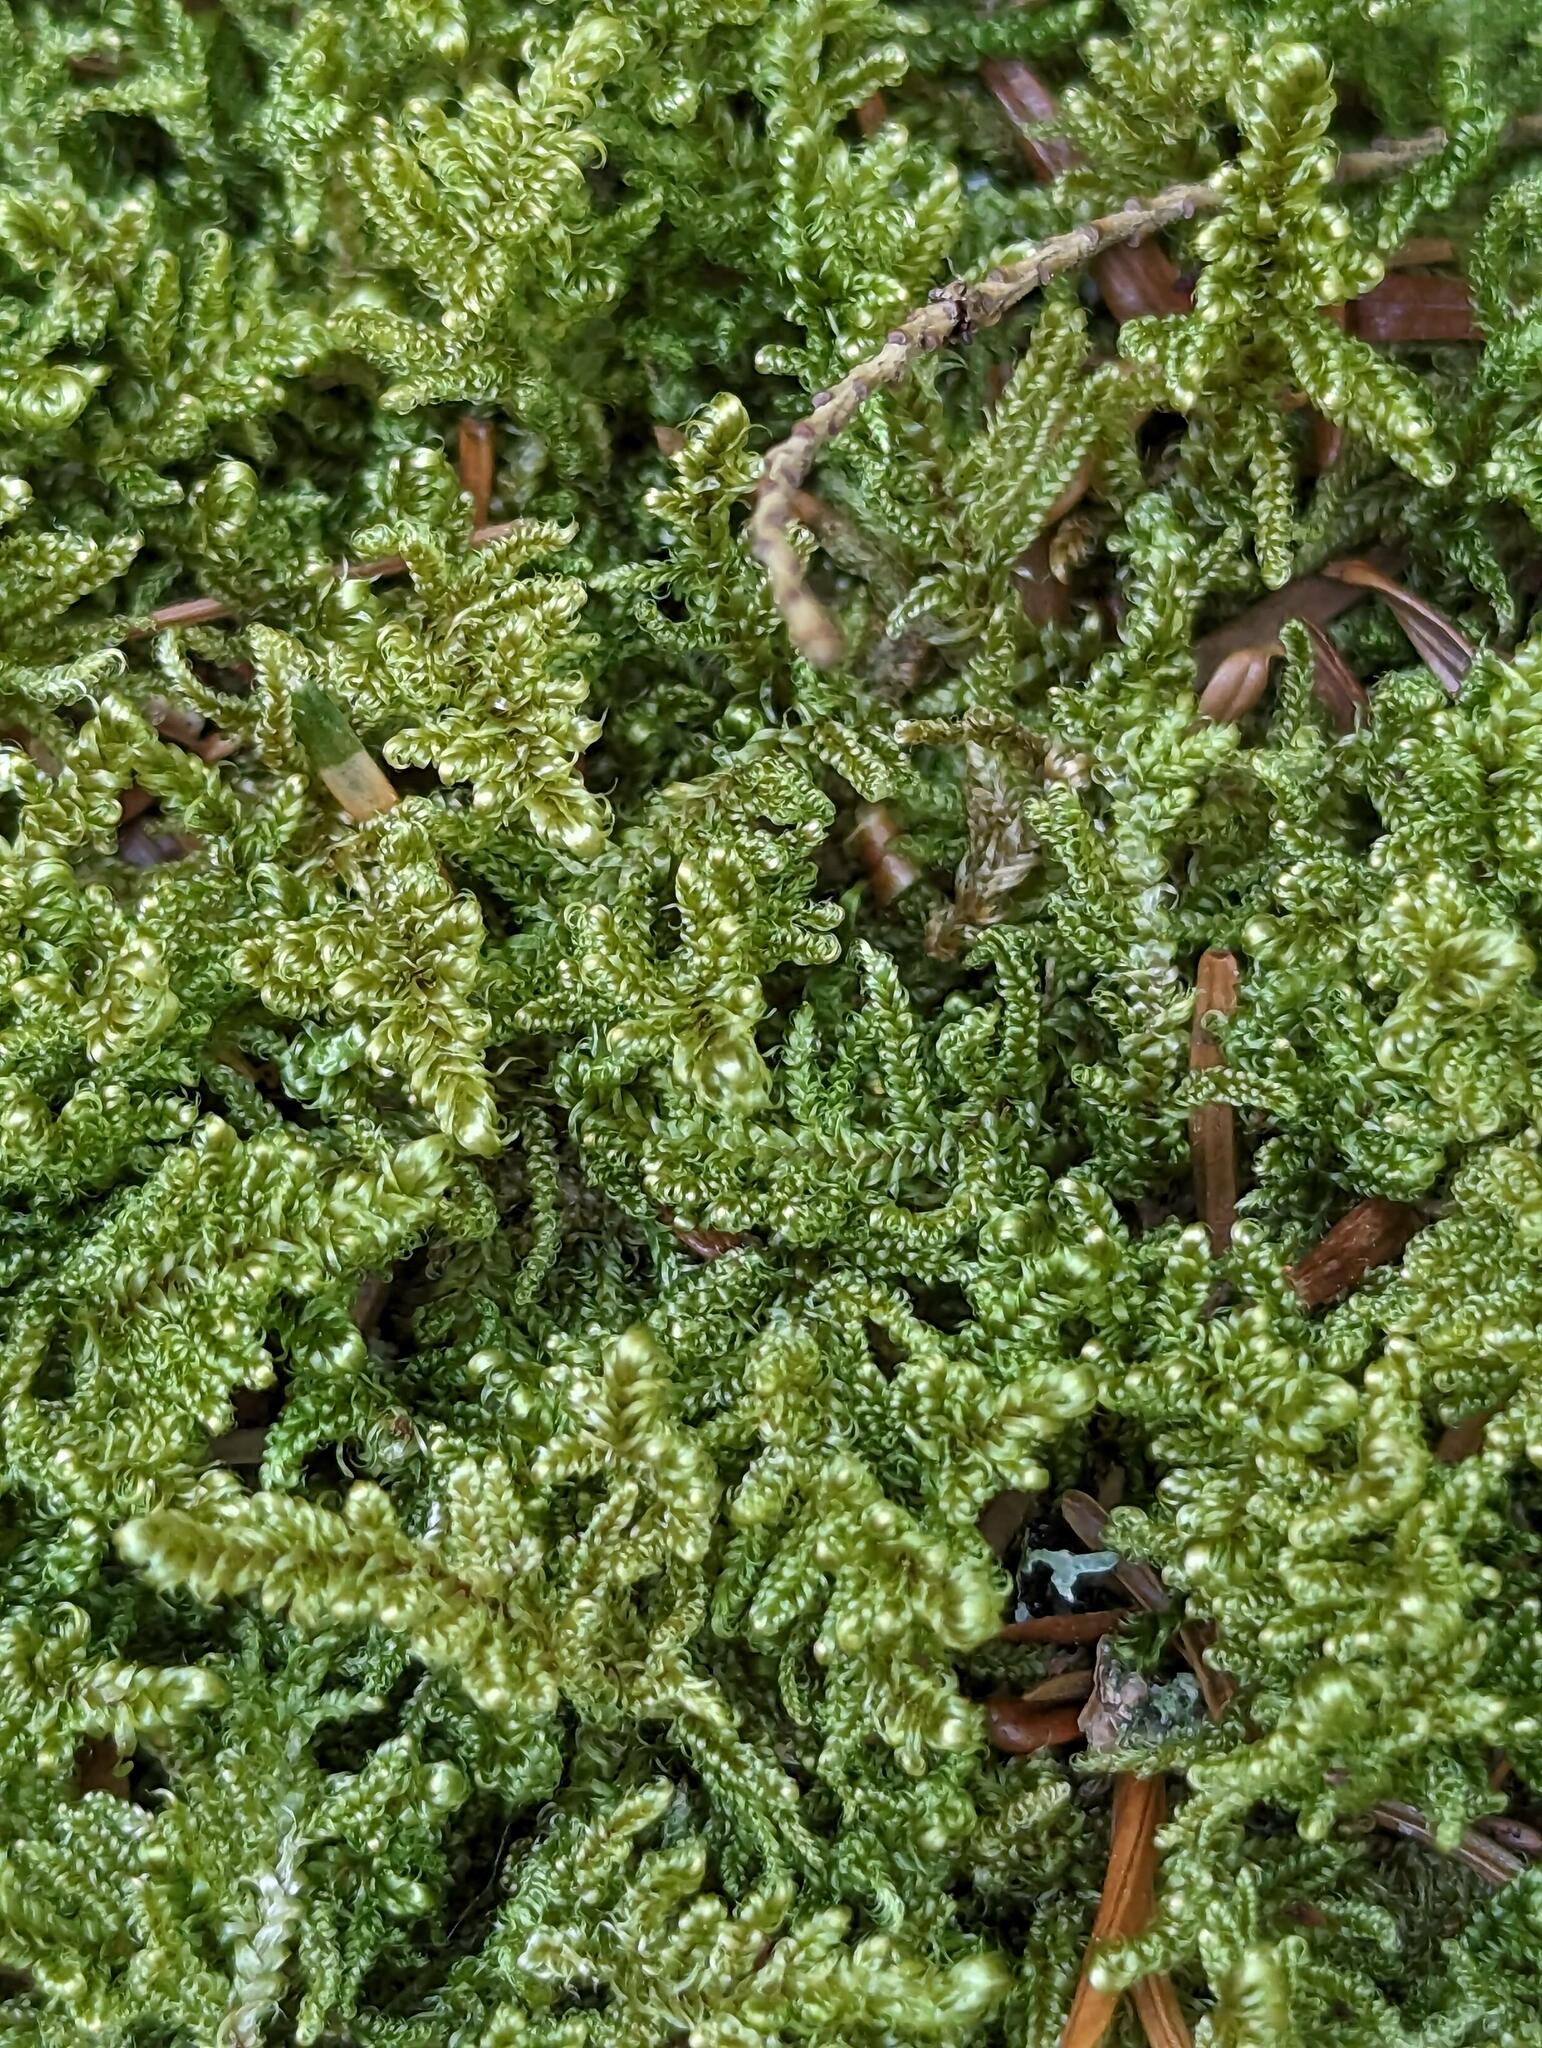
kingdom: Plantae
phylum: Bryophyta
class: Bryopsida
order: Hypnales
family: Callicladiaceae
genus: Callicladium
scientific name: Callicladium imponens
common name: Brocade moss
